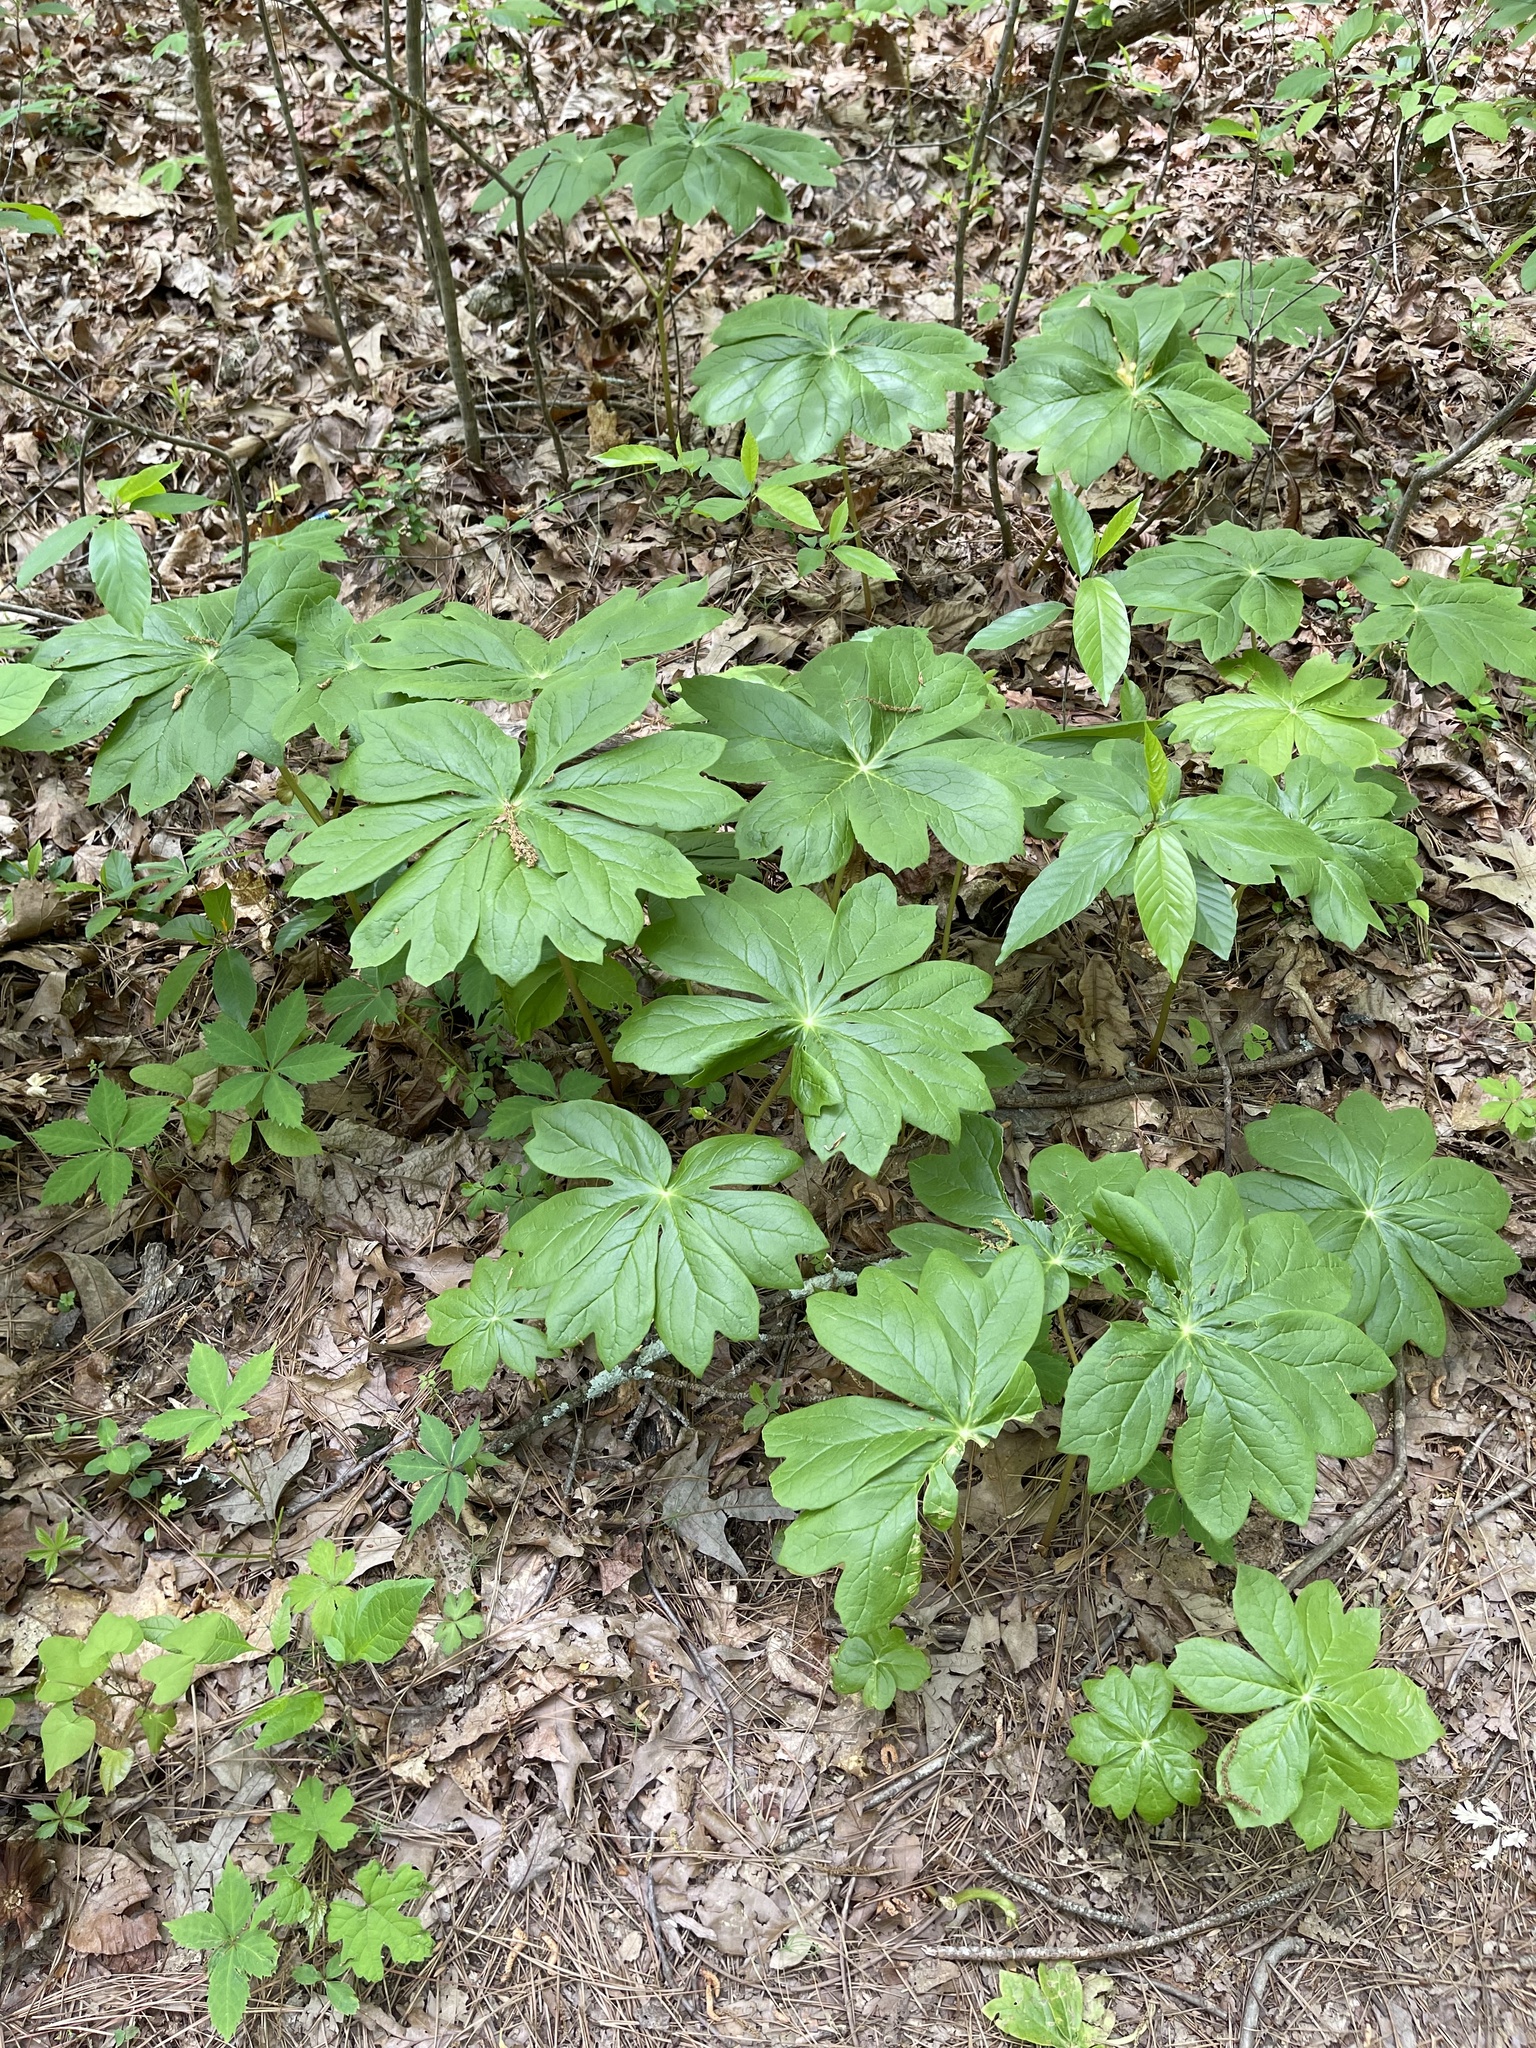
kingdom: Plantae
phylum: Tracheophyta
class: Magnoliopsida
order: Ranunculales
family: Berberidaceae
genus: Podophyllum
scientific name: Podophyllum peltatum
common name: Wild mandrake
